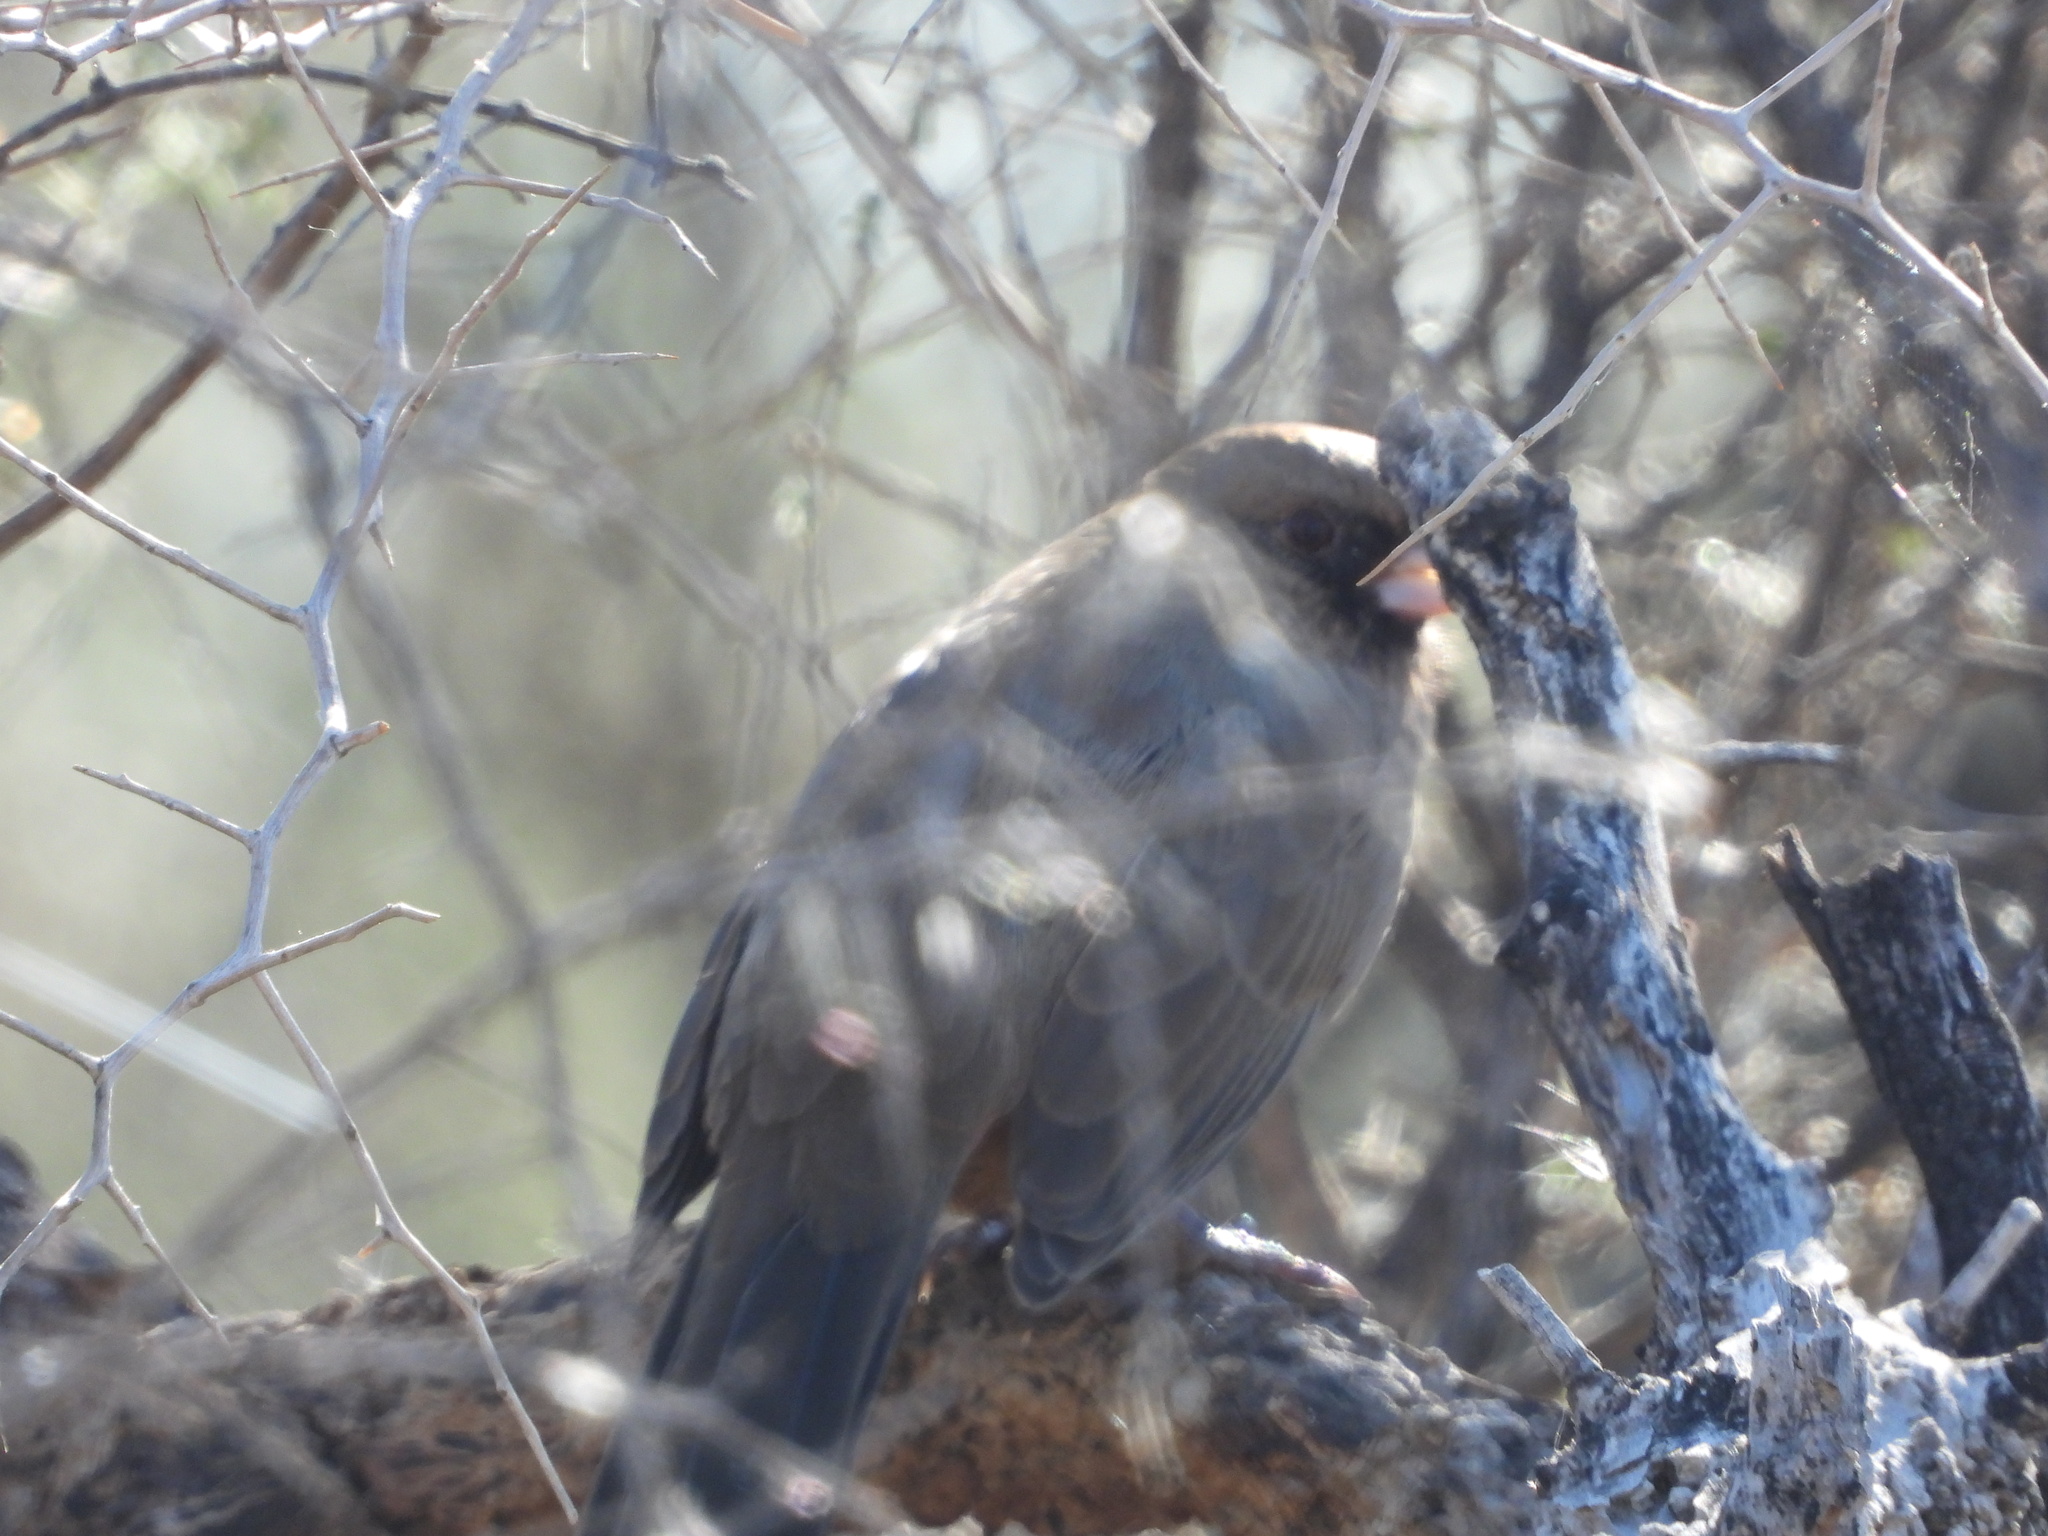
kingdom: Animalia
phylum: Chordata
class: Aves
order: Passeriformes
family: Passerellidae
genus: Melozone
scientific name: Melozone aberti
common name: Abert's towhee
